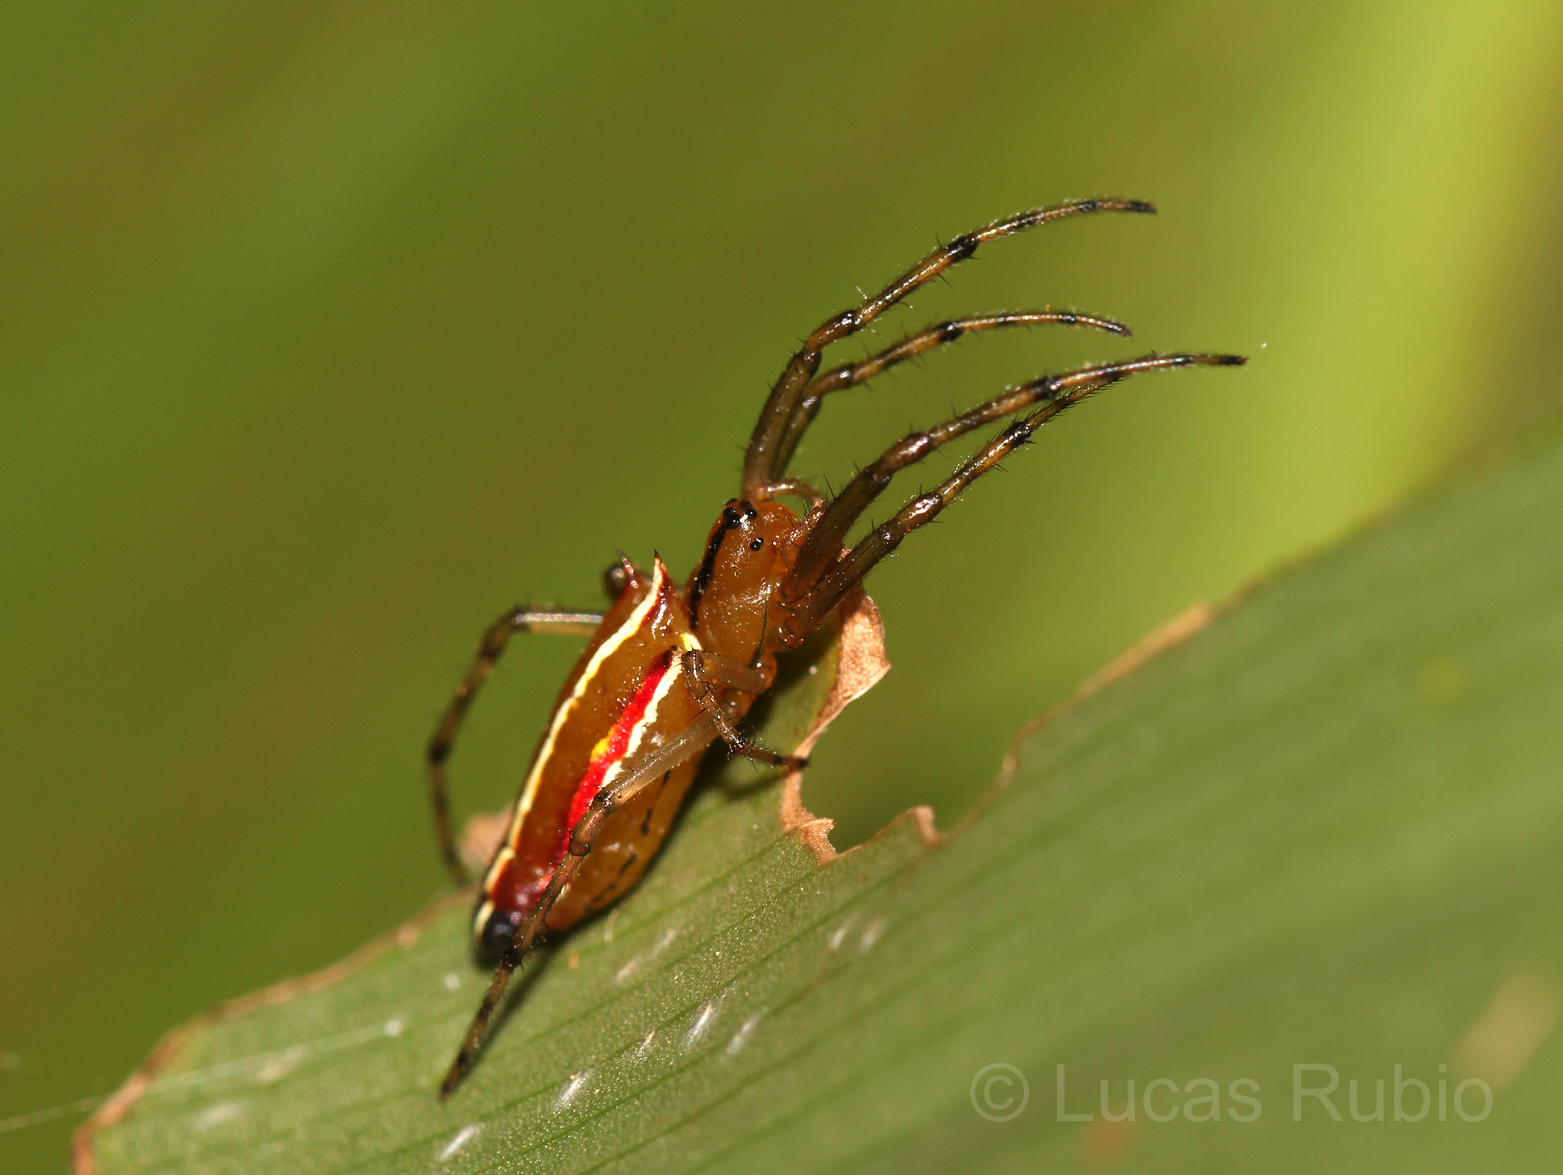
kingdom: Animalia
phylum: Arthropoda
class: Arachnida
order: Araneae
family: Araneidae
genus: Alpaida
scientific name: Alpaida trispinosa
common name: Orb weavers
